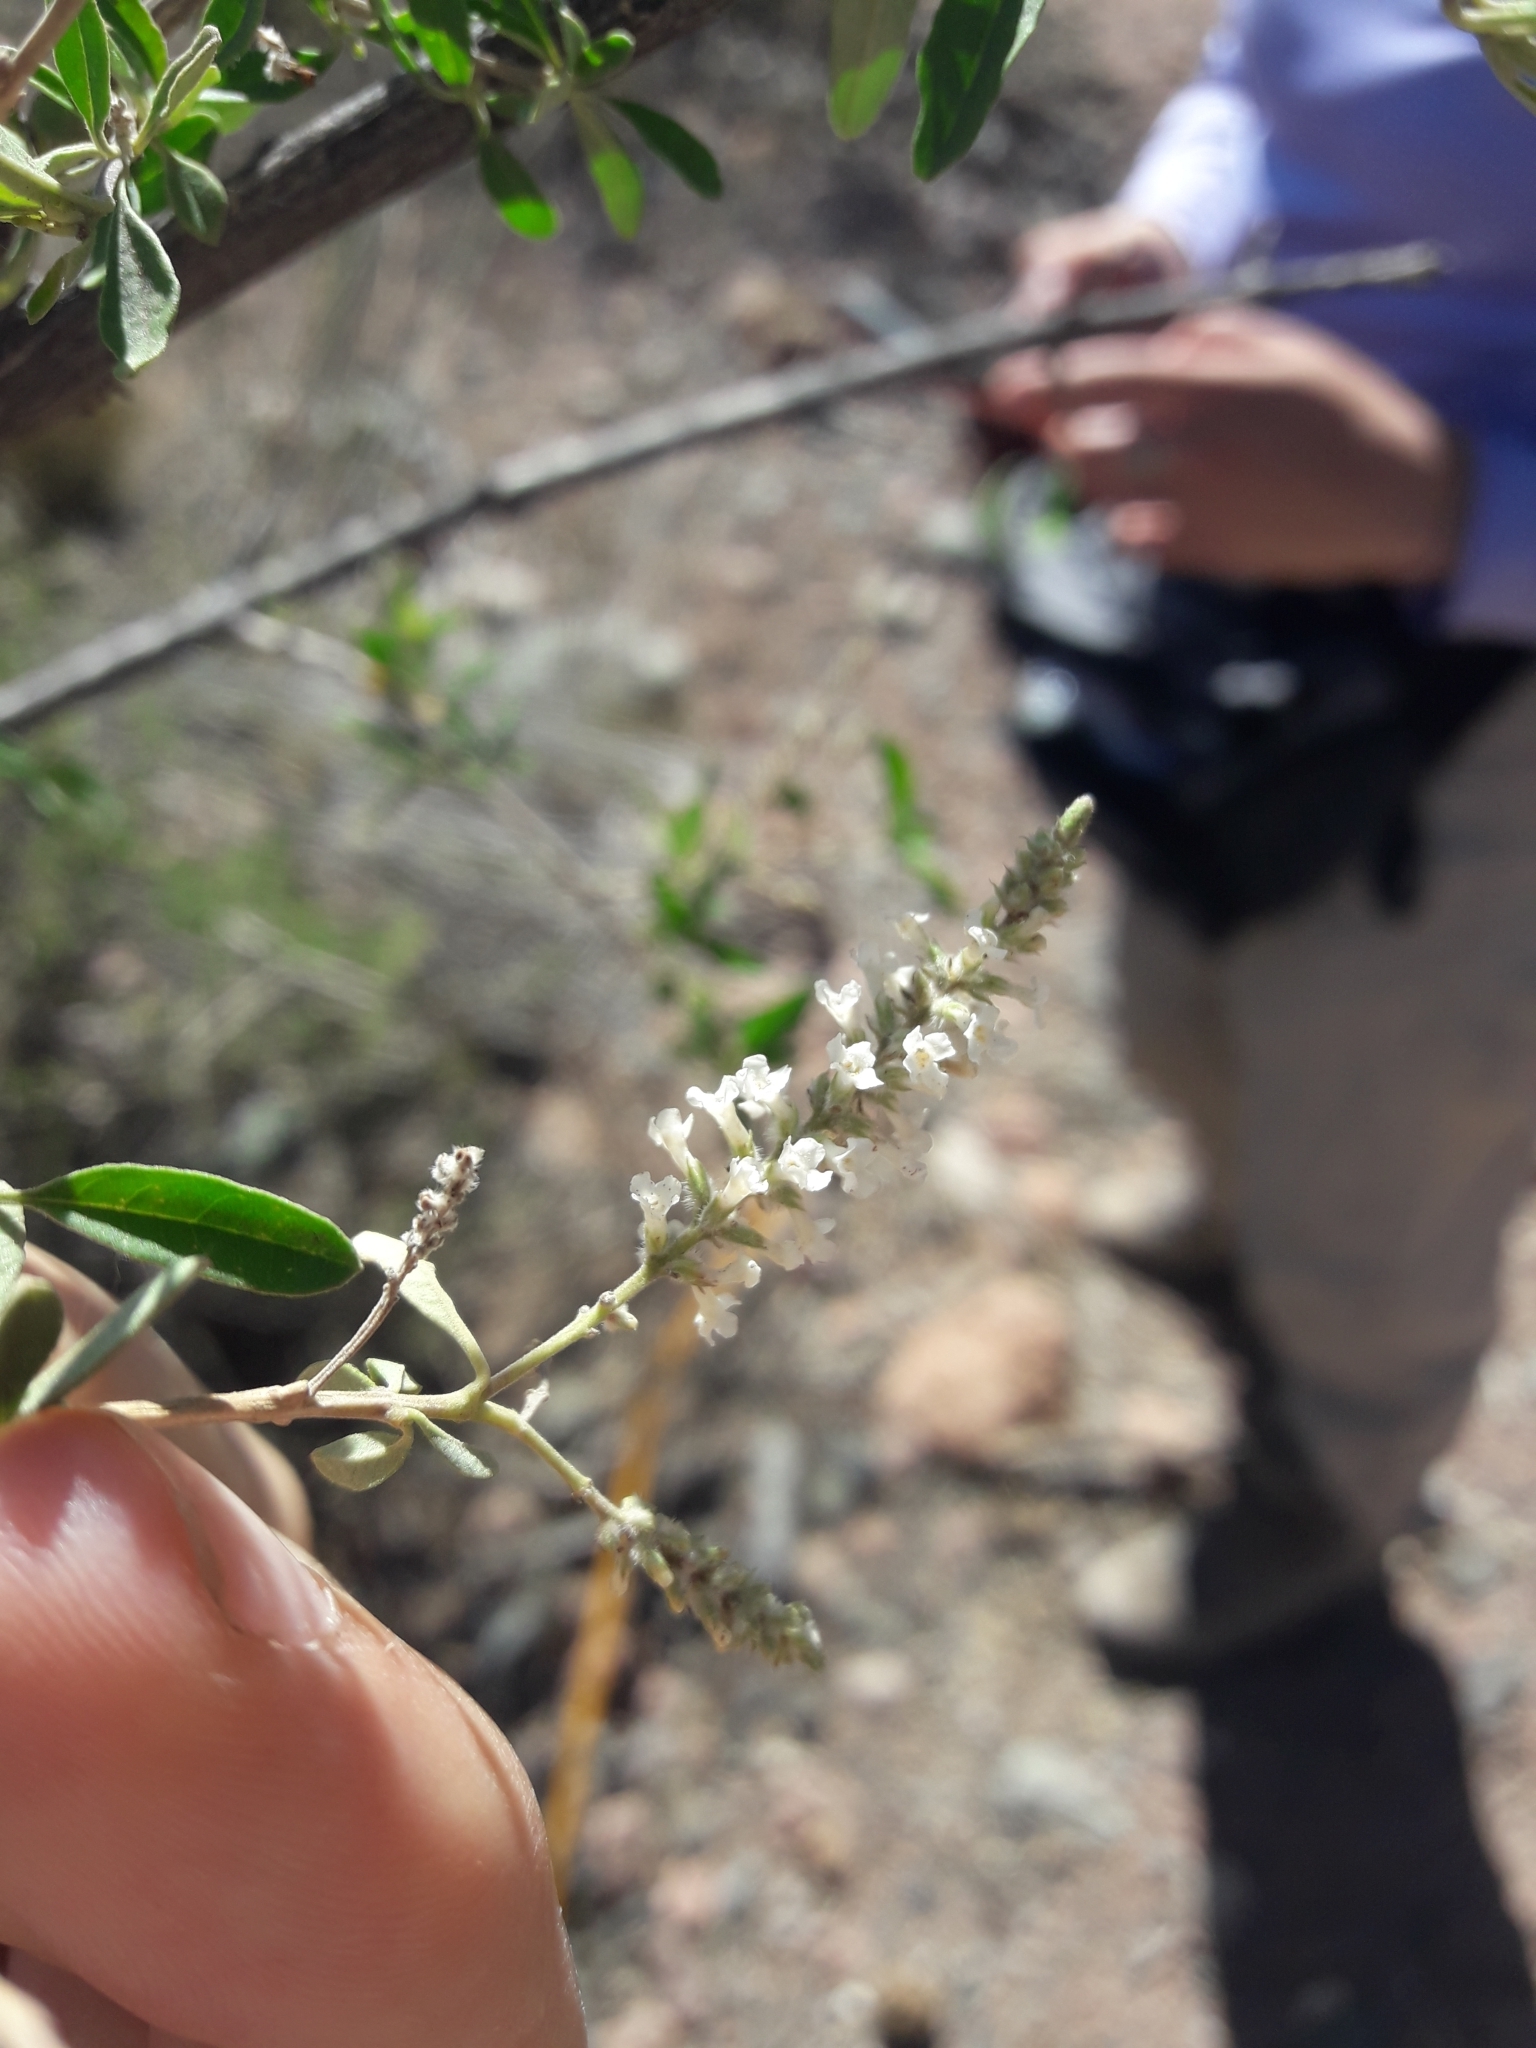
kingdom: Plantae
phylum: Tracheophyta
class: Magnoliopsida
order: Lamiales
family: Verbenaceae
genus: Aloysia
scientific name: Aloysia gratissima
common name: Common bee-brush
